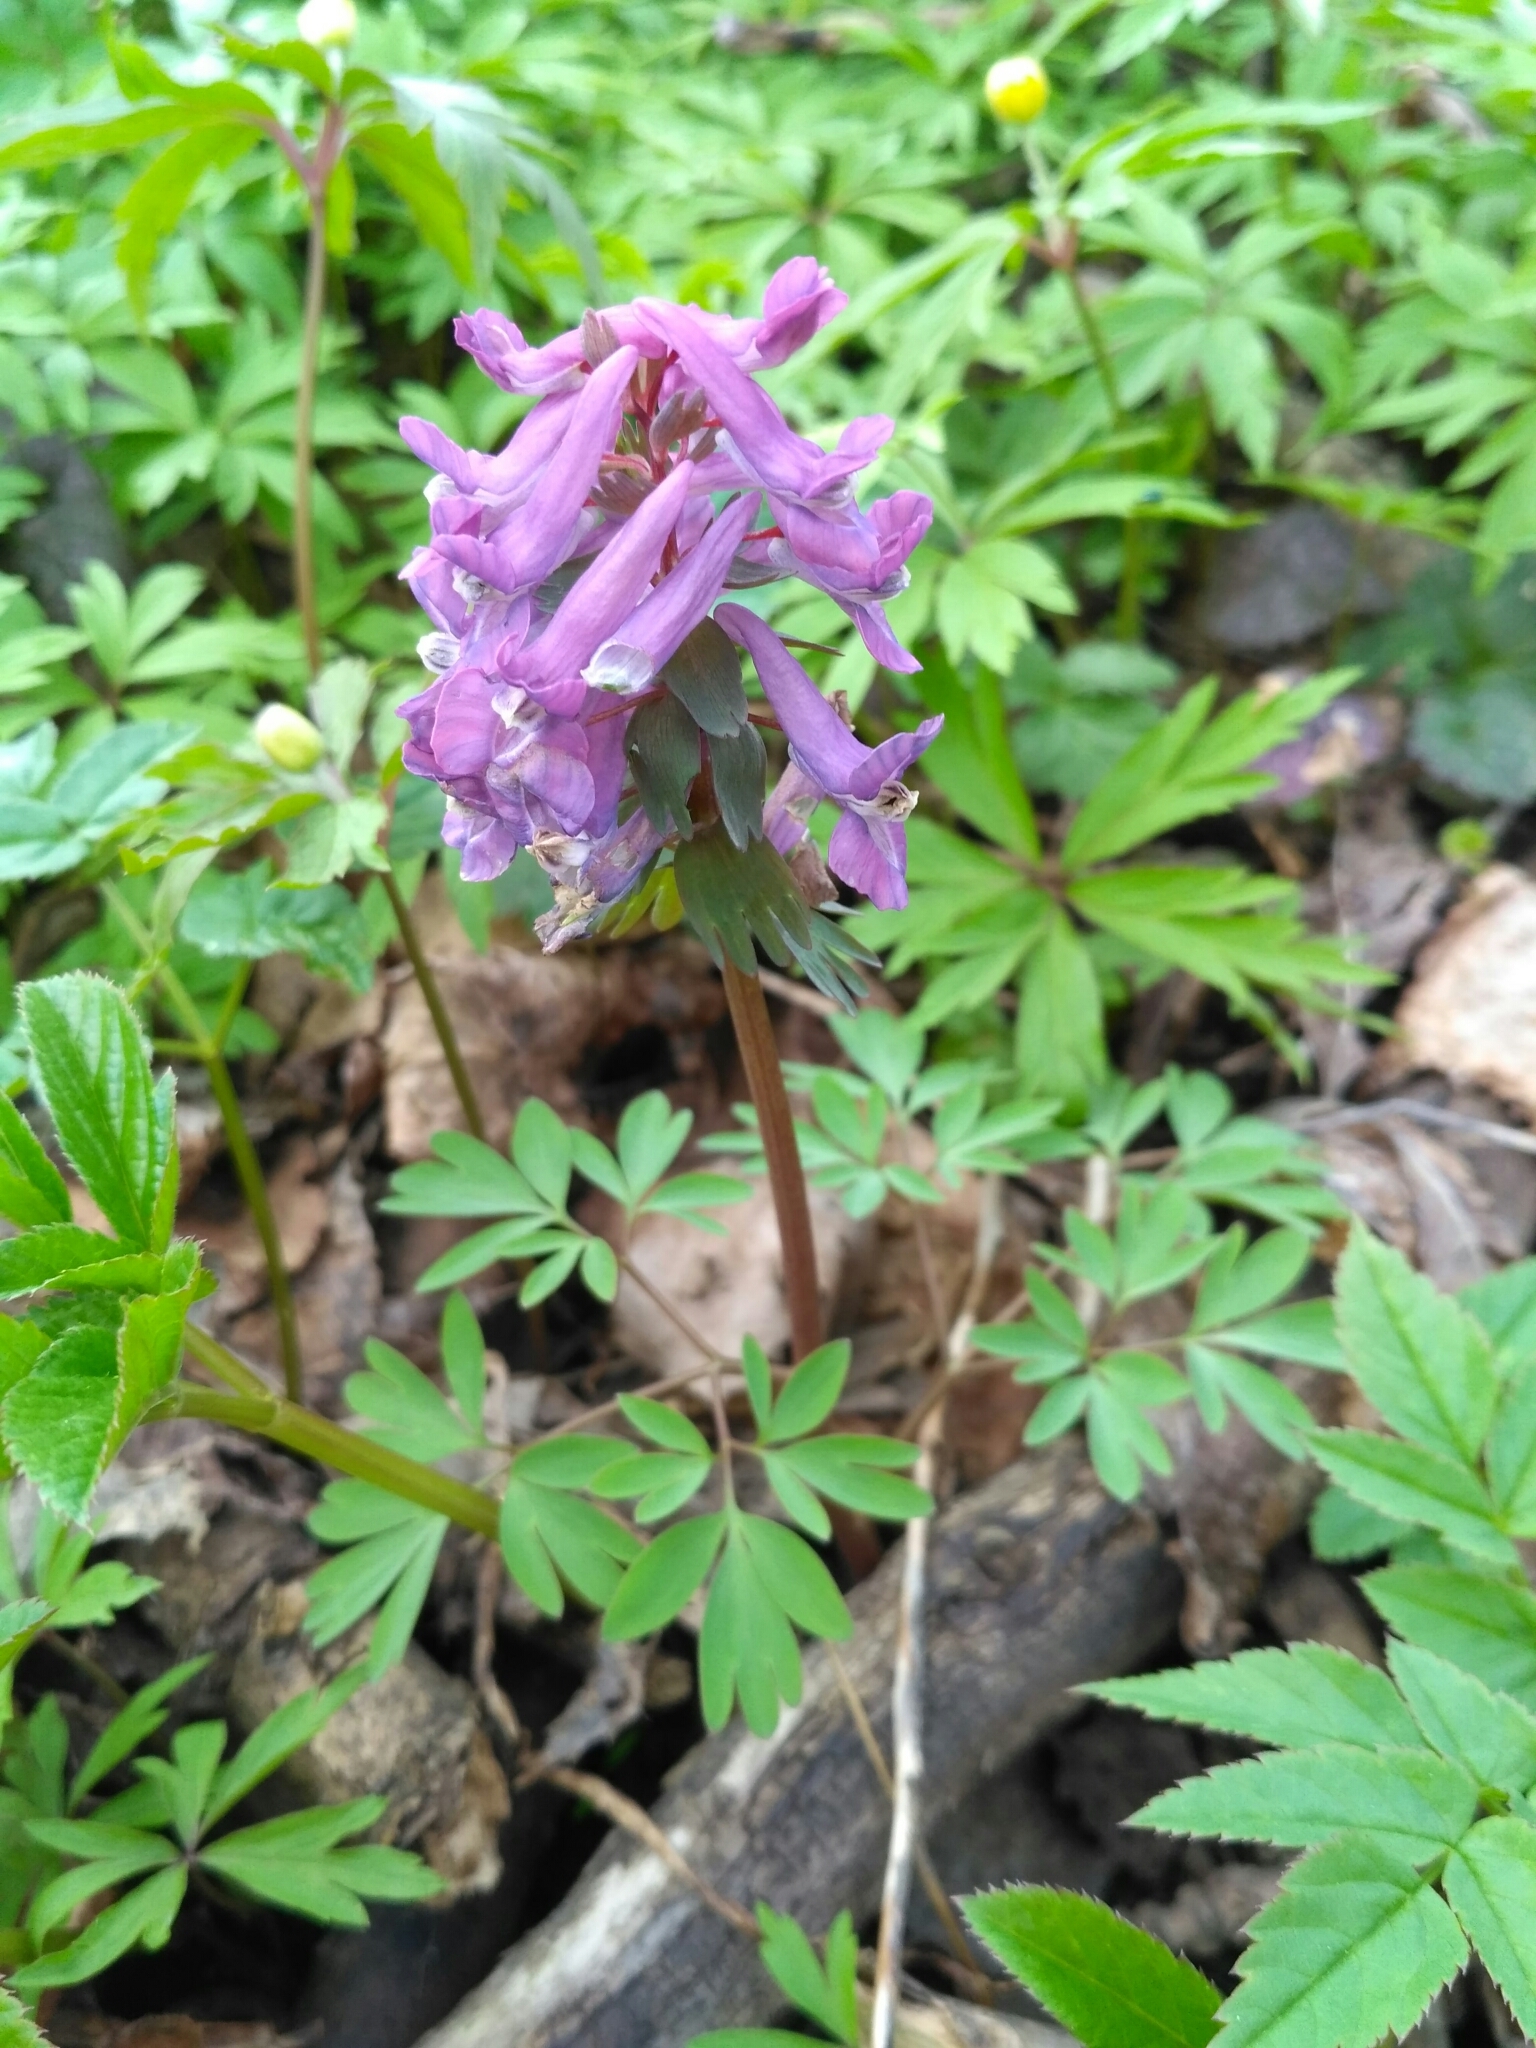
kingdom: Plantae
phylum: Tracheophyta
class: Magnoliopsida
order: Ranunculales
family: Papaveraceae
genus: Corydalis
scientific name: Corydalis solida
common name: Bird-in-a-bush
